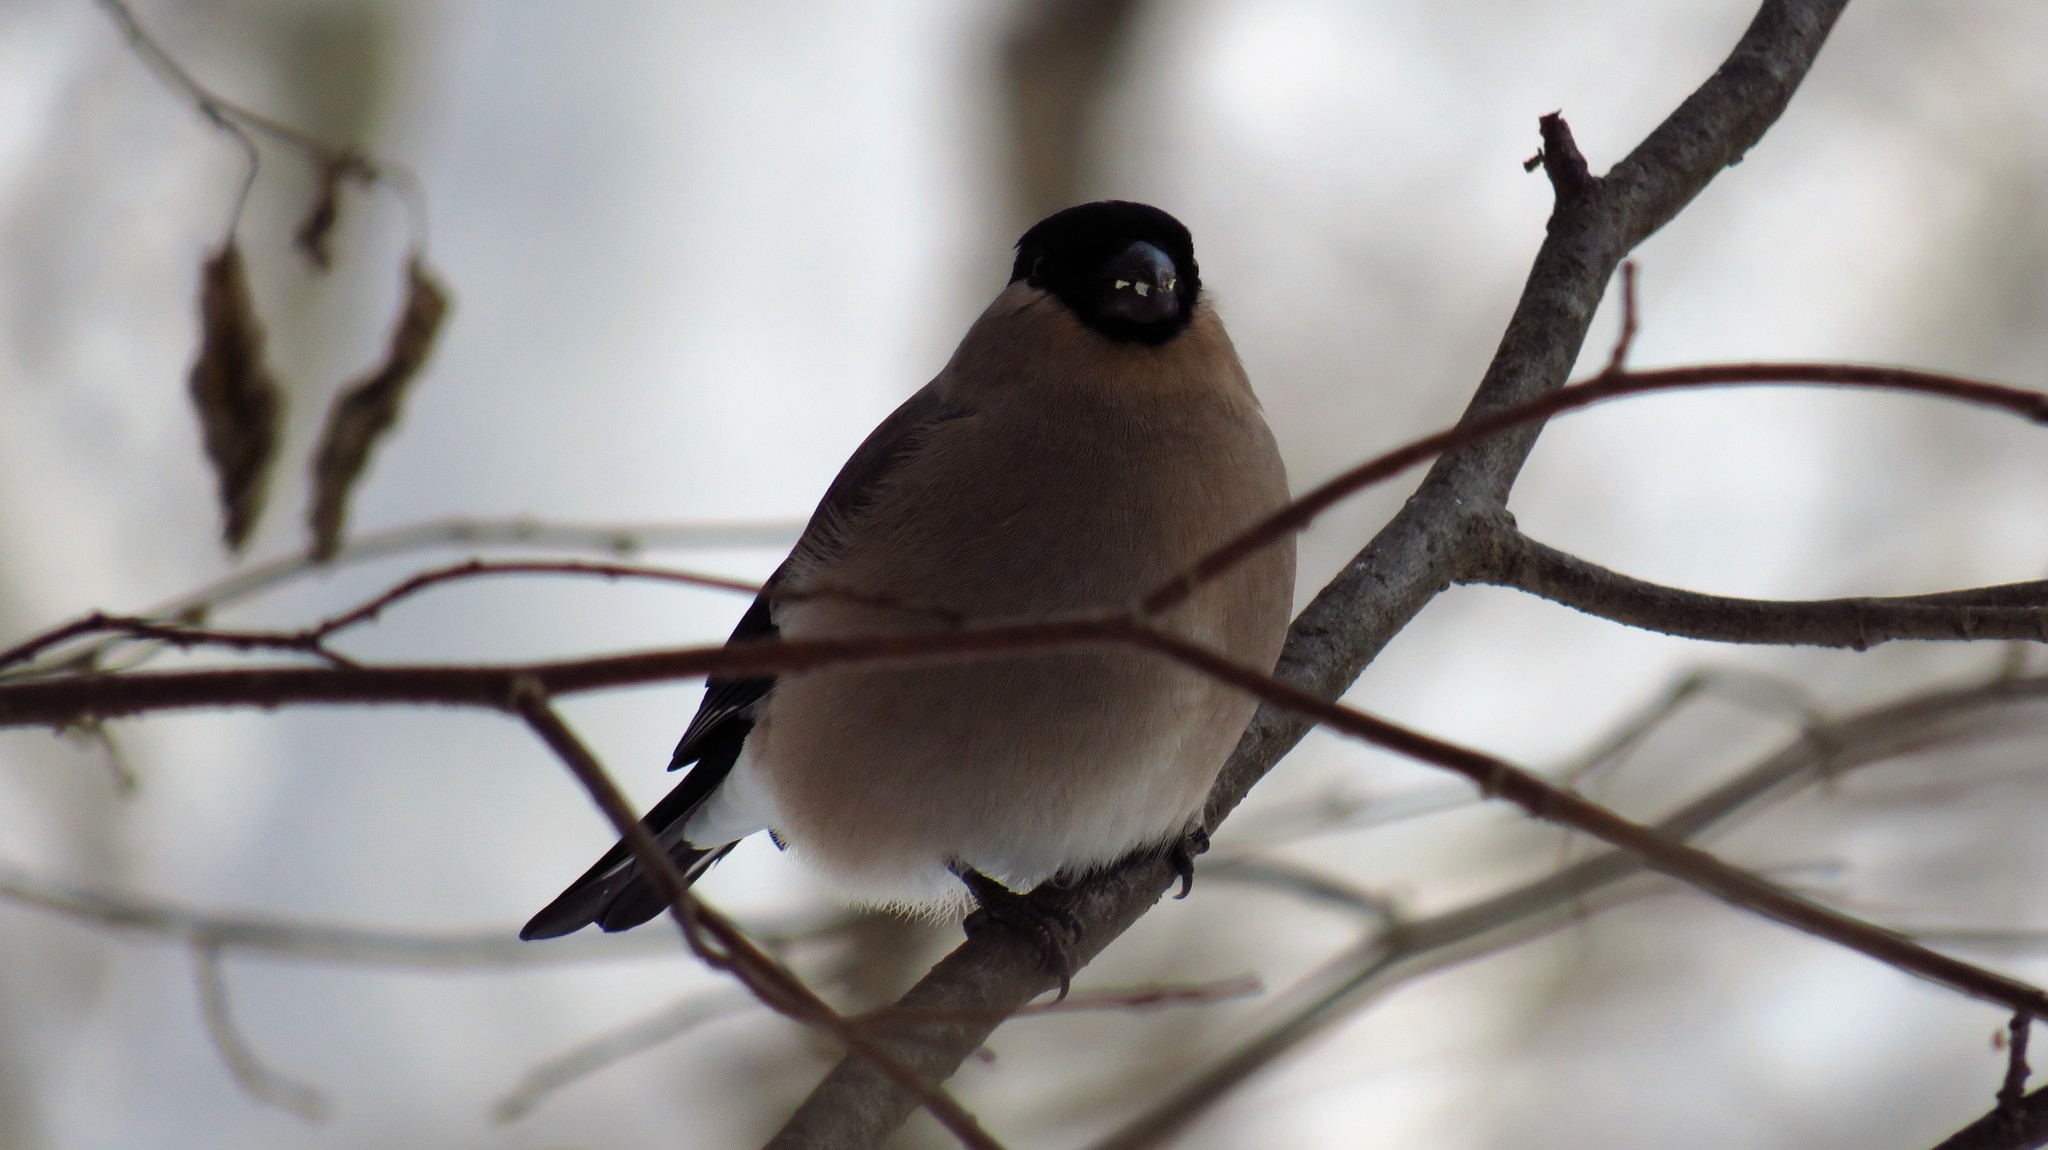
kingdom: Animalia
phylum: Chordata
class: Aves
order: Passeriformes
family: Fringillidae
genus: Pyrrhula
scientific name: Pyrrhula pyrrhula
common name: Eurasian bullfinch
